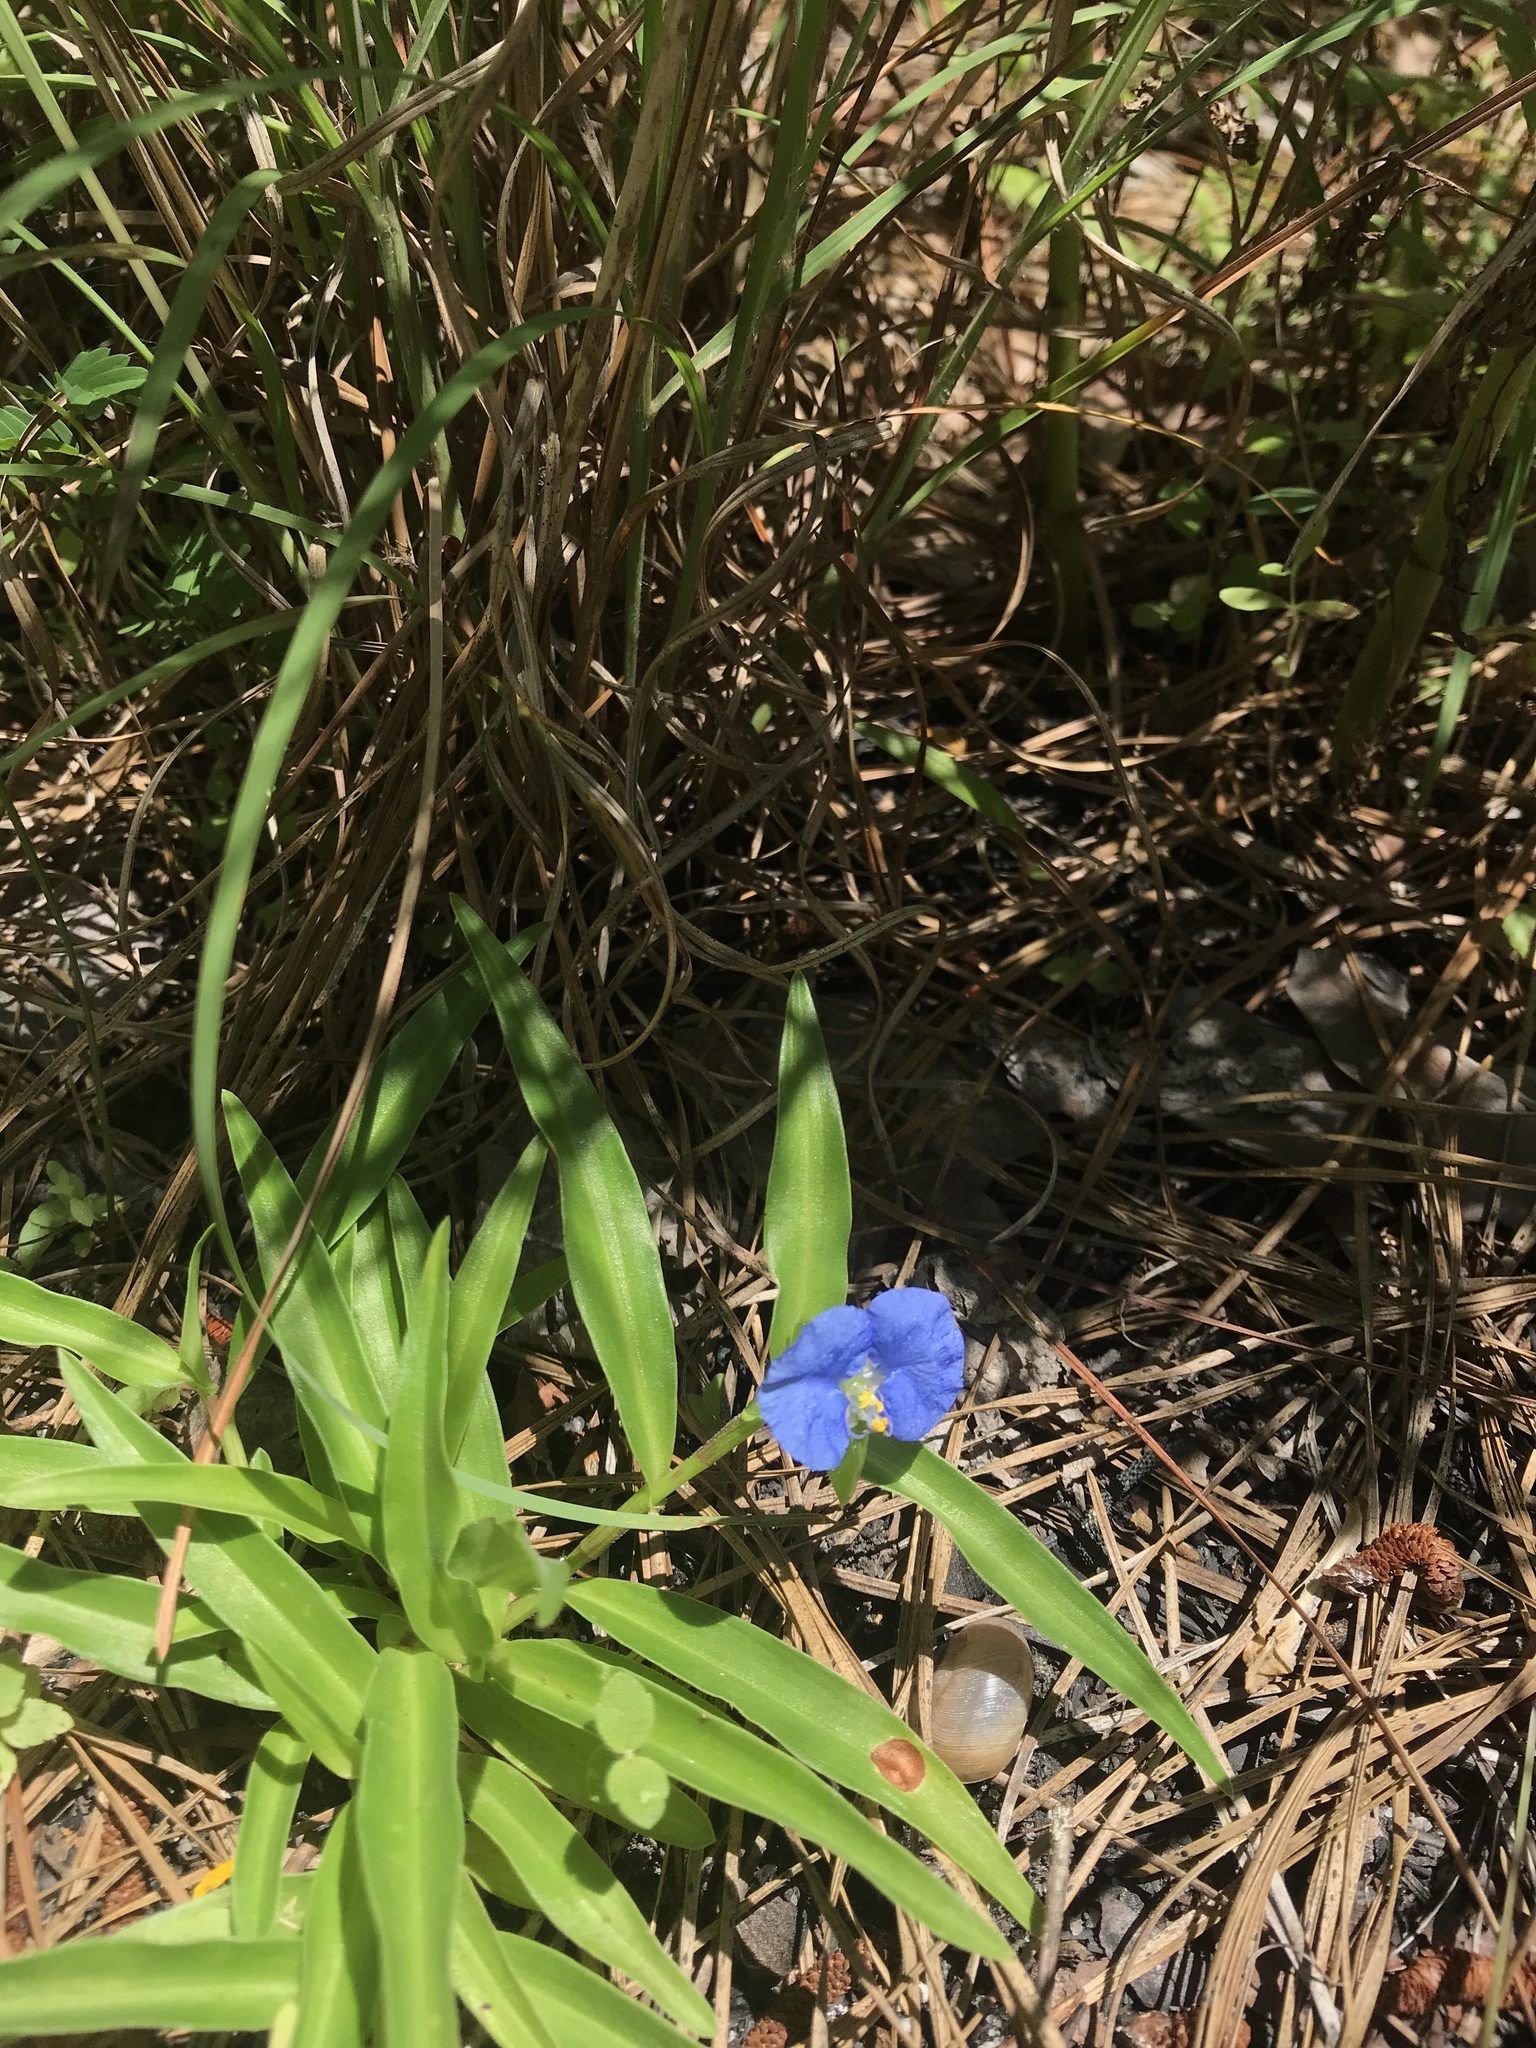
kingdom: Plantae
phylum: Tracheophyta
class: Liliopsida
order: Commelinales
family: Commelinaceae
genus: Commelina
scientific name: Commelina erecta
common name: Blousel blommetjie
